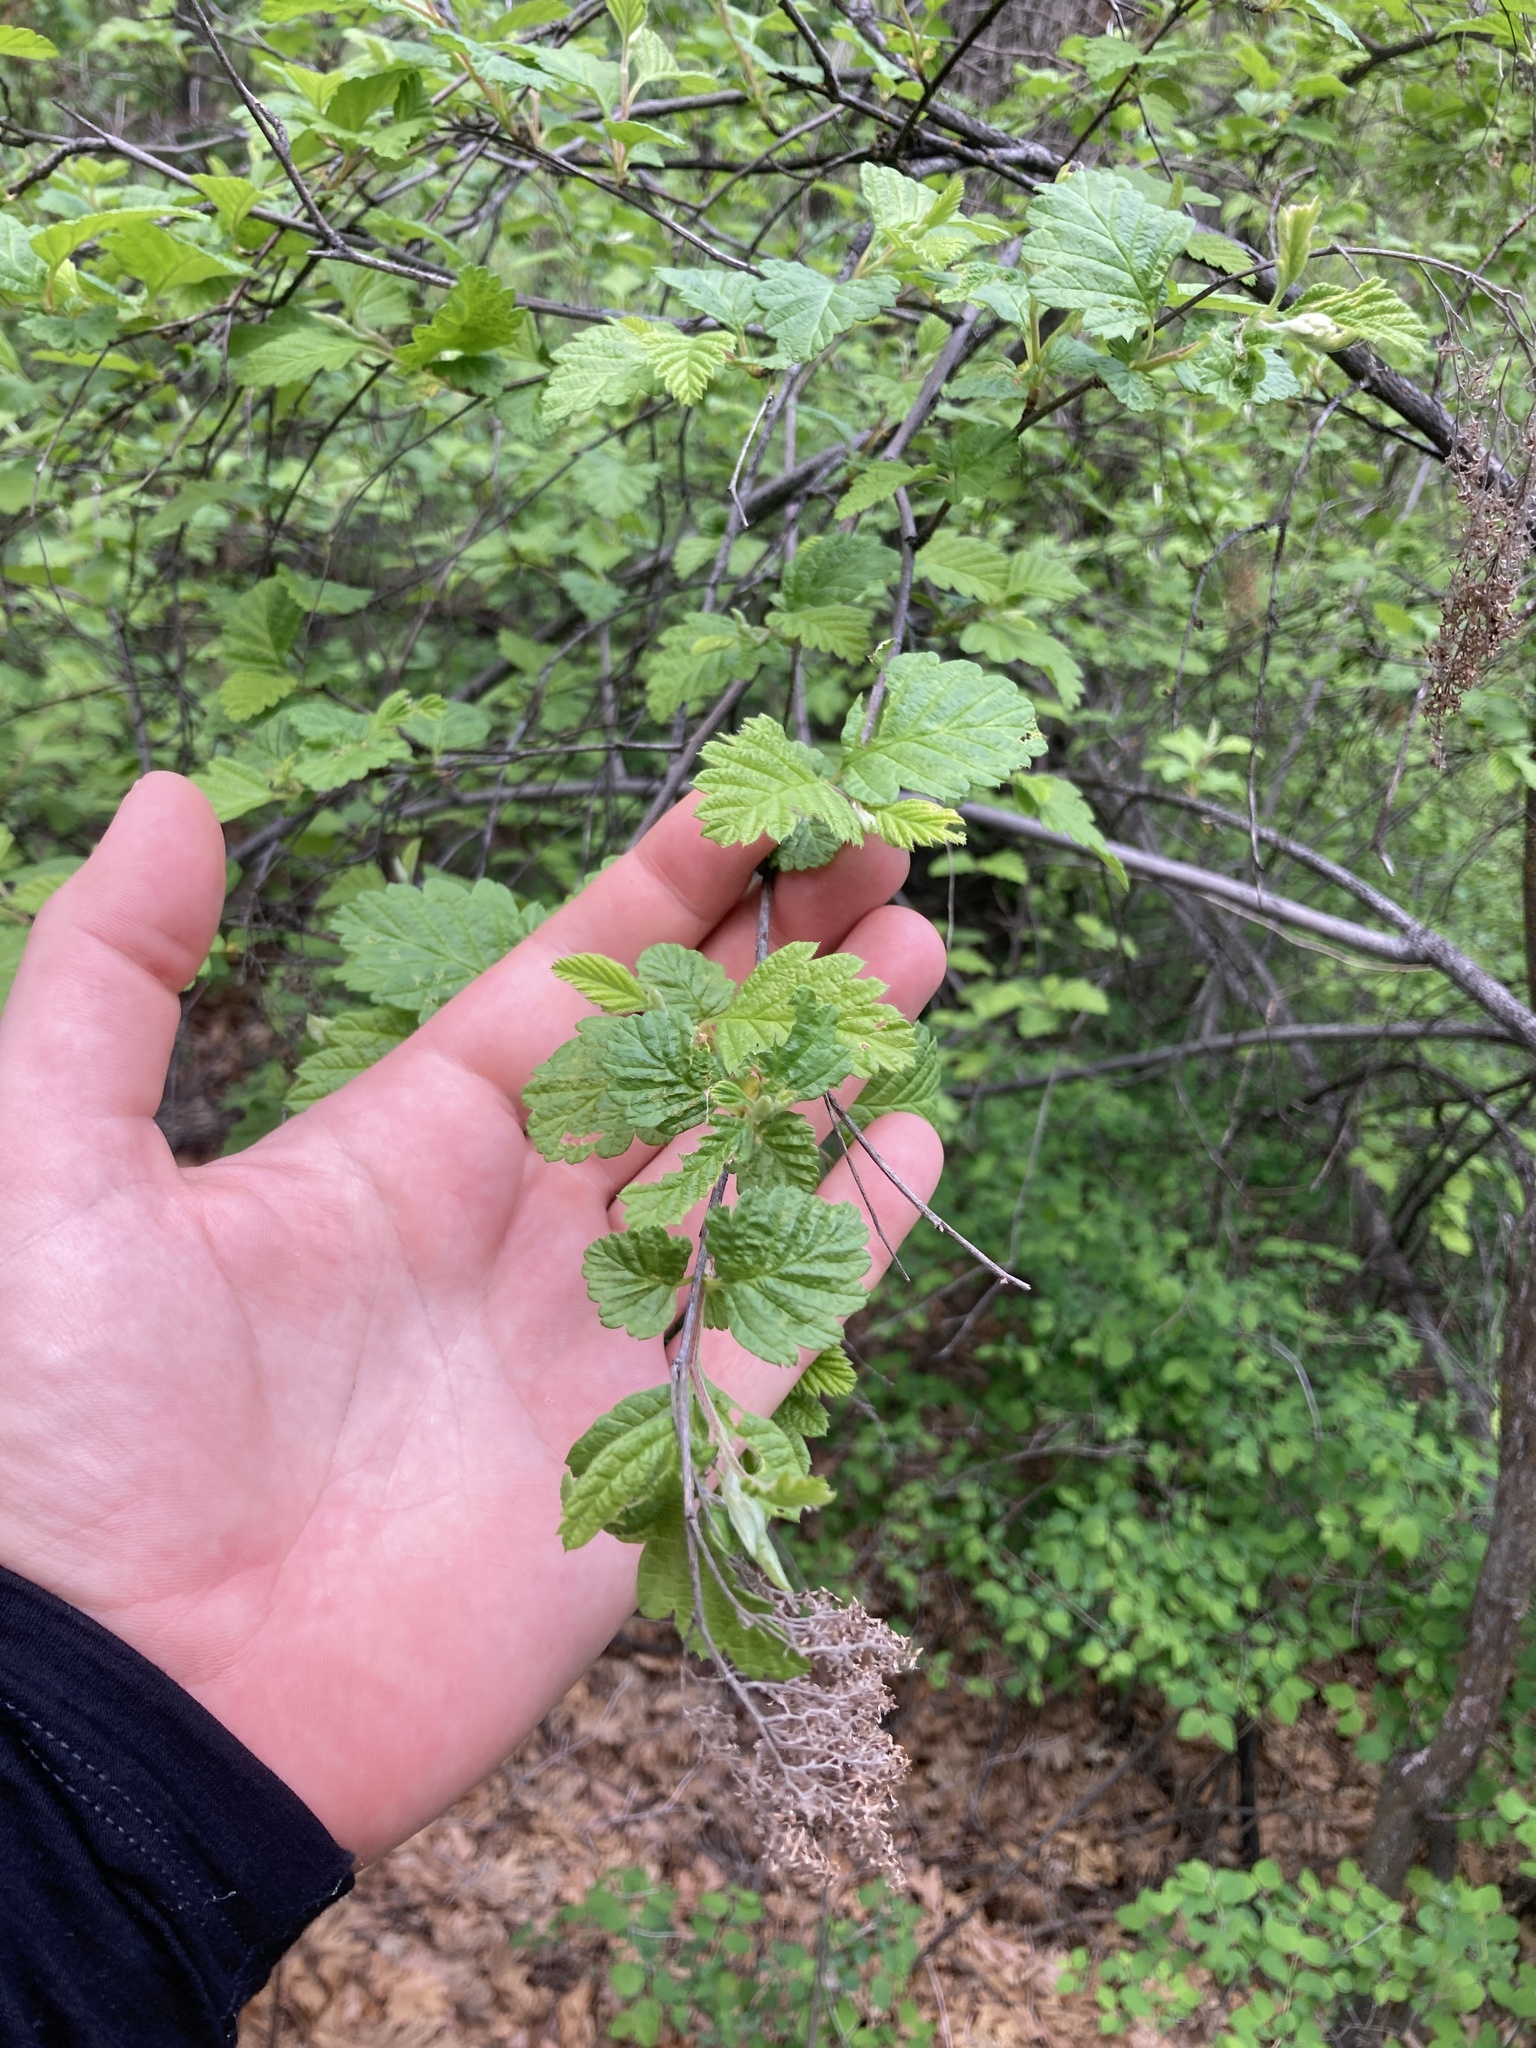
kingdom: Plantae
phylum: Tracheophyta
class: Magnoliopsida
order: Rosales
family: Rosaceae
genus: Holodiscus
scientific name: Holodiscus discolor
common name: Oceanspray
